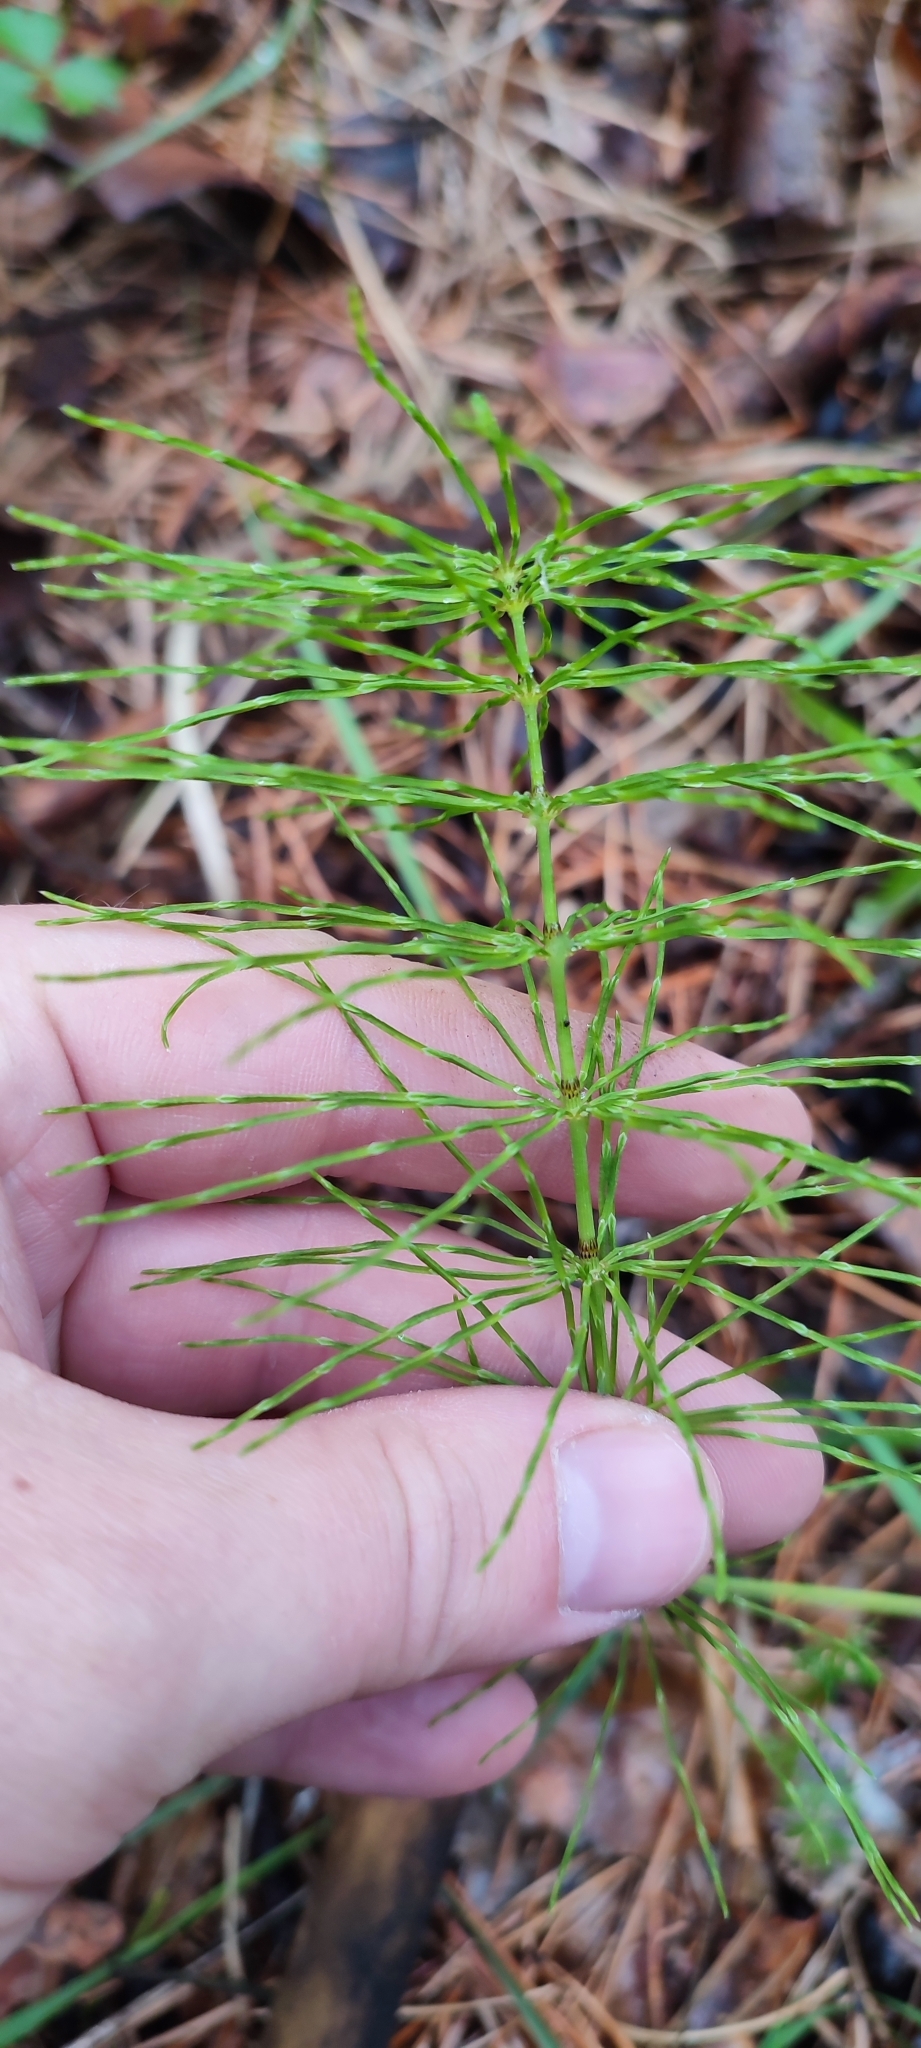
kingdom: Plantae
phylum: Tracheophyta
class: Polypodiopsida
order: Equisetales
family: Equisetaceae
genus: Equisetum
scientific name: Equisetum pratense
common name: Meadow horsetail
